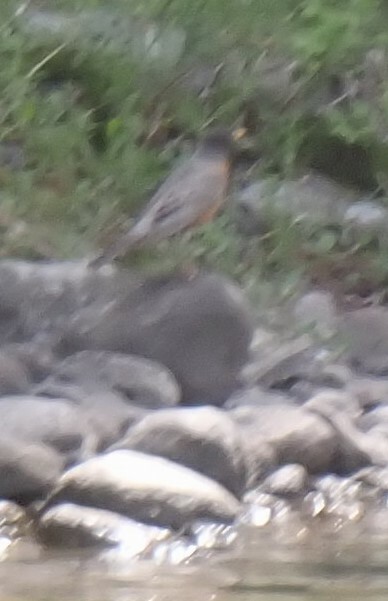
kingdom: Animalia
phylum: Chordata
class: Aves
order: Passeriformes
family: Turdidae
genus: Turdus
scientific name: Turdus migratorius
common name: American robin
